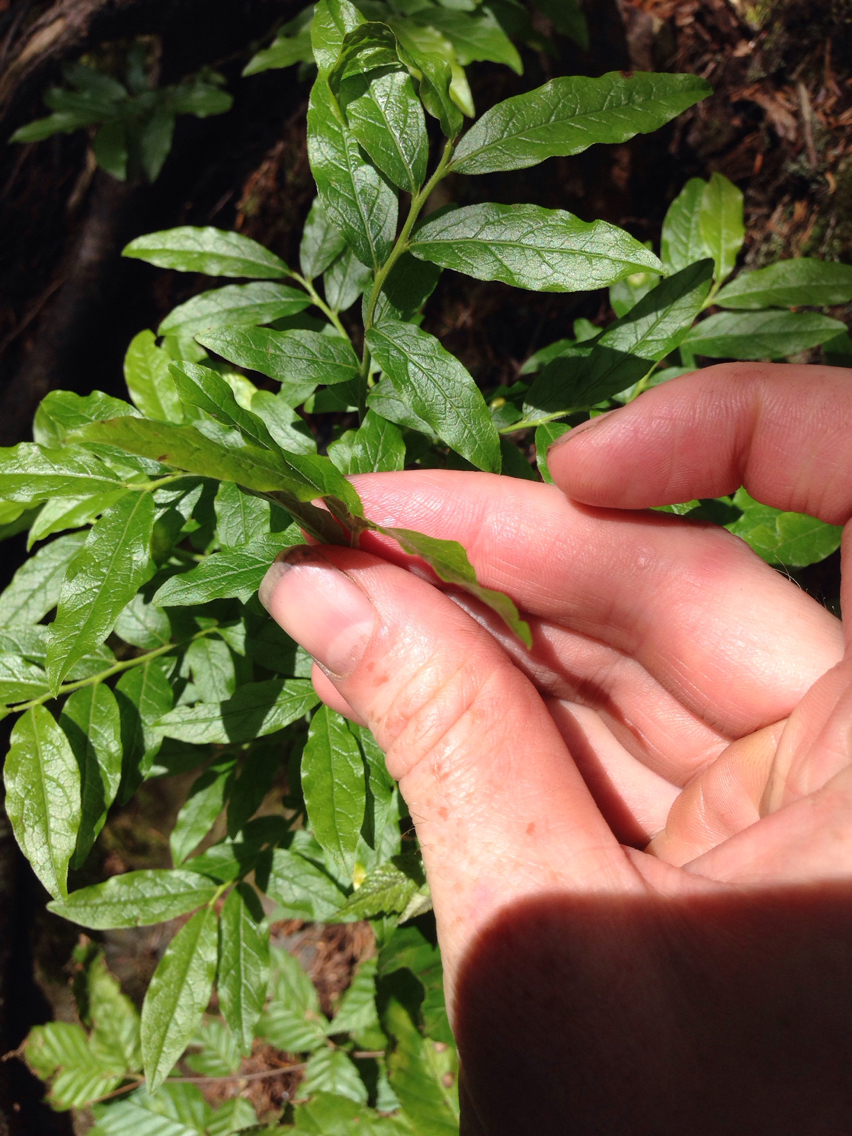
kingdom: Plantae
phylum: Tracheophyta
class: Magnoliopsida
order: Ericales
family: Ericaceae
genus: Vaccinium
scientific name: Vaccinium angustifolium
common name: Early lowbush blueberry
